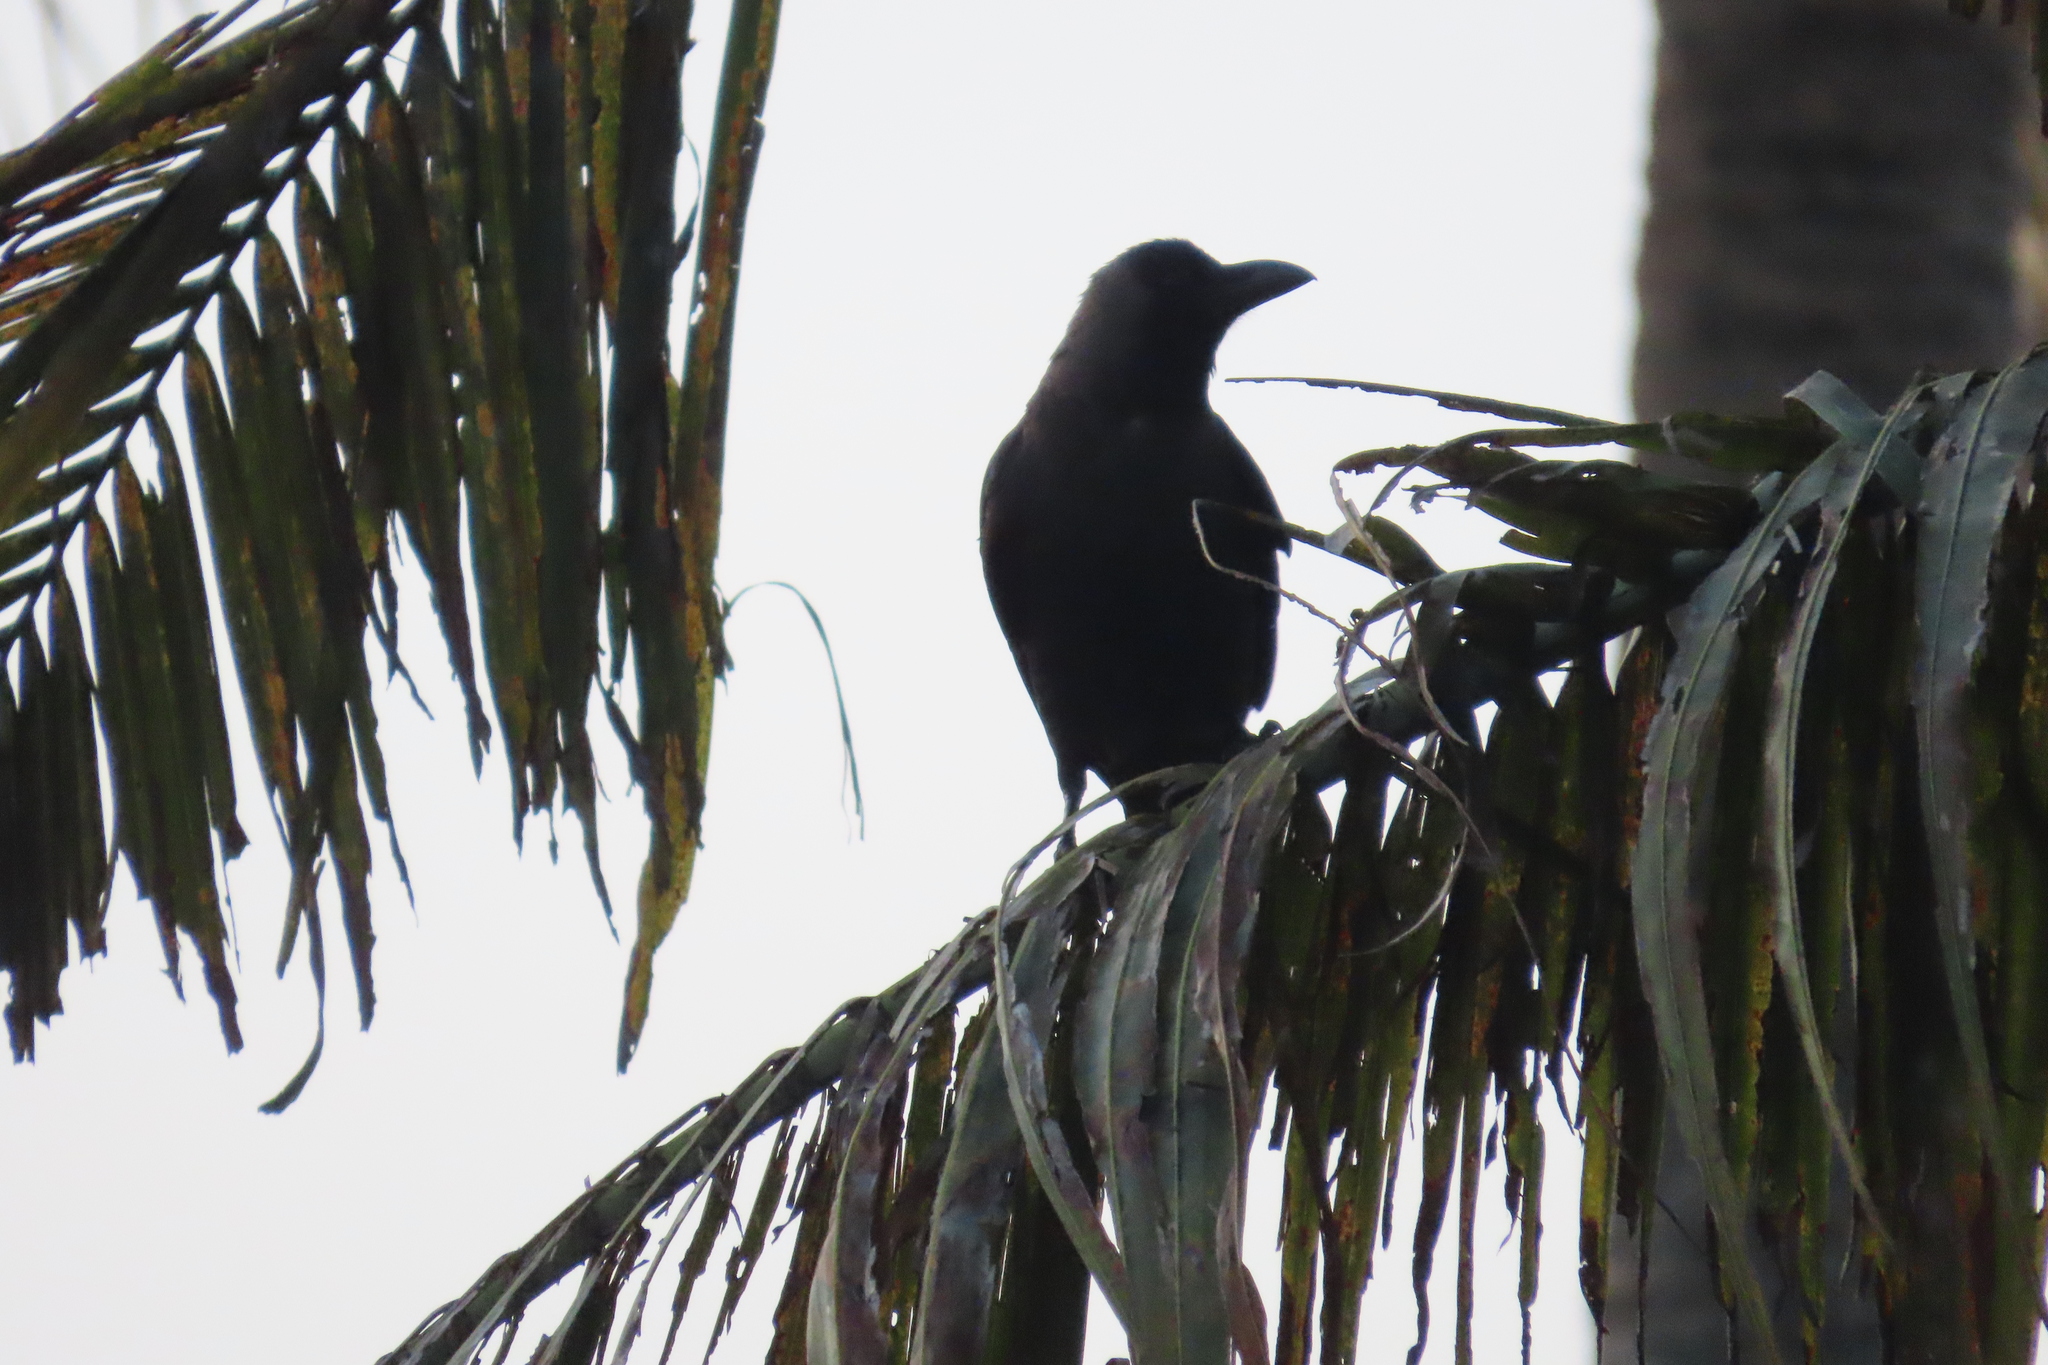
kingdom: Animalia
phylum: Chordata
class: Aves
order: Passeriformes
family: Corvidae
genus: Corvus
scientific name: Corvus splendens
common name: House crow
